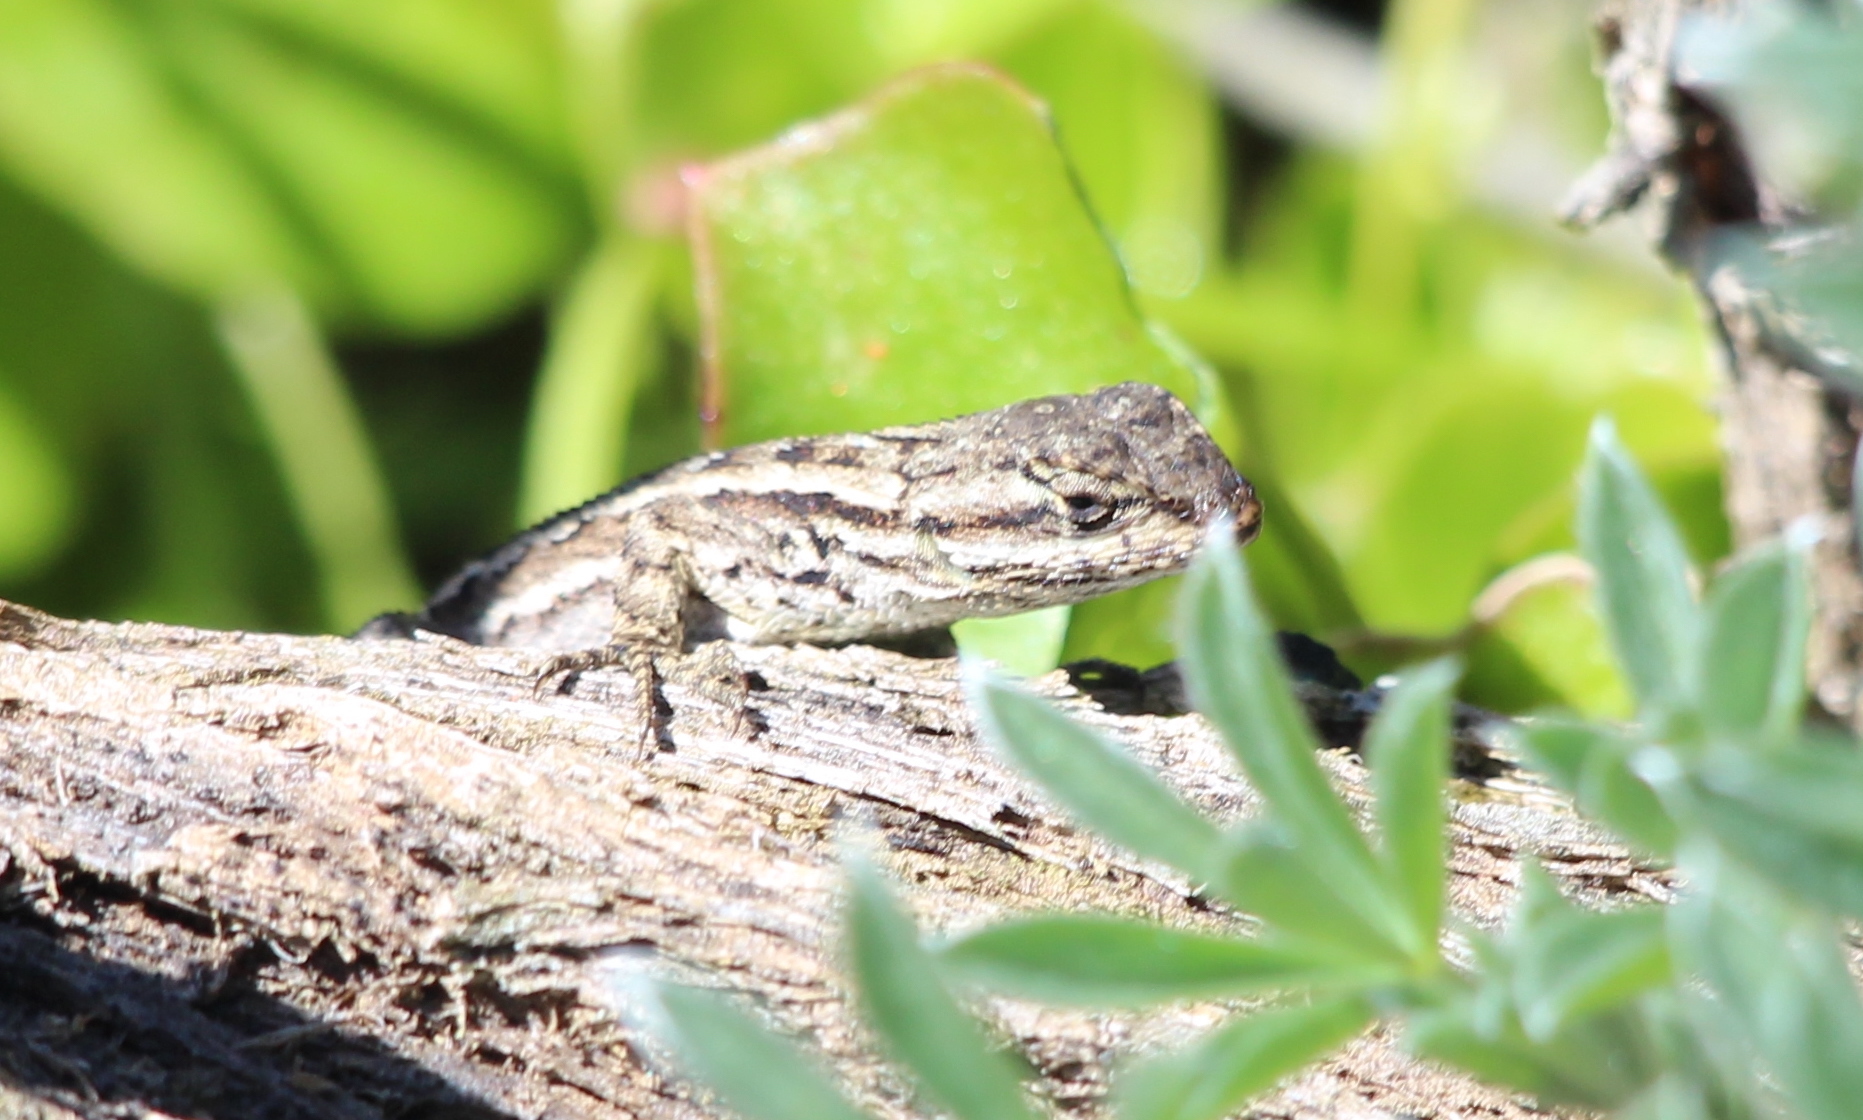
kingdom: Animalia
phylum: Chordata
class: Squamata
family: Phrynosomatidae
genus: Sceloporus
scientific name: Sceloporus occidentalis
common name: Western fence lizard
